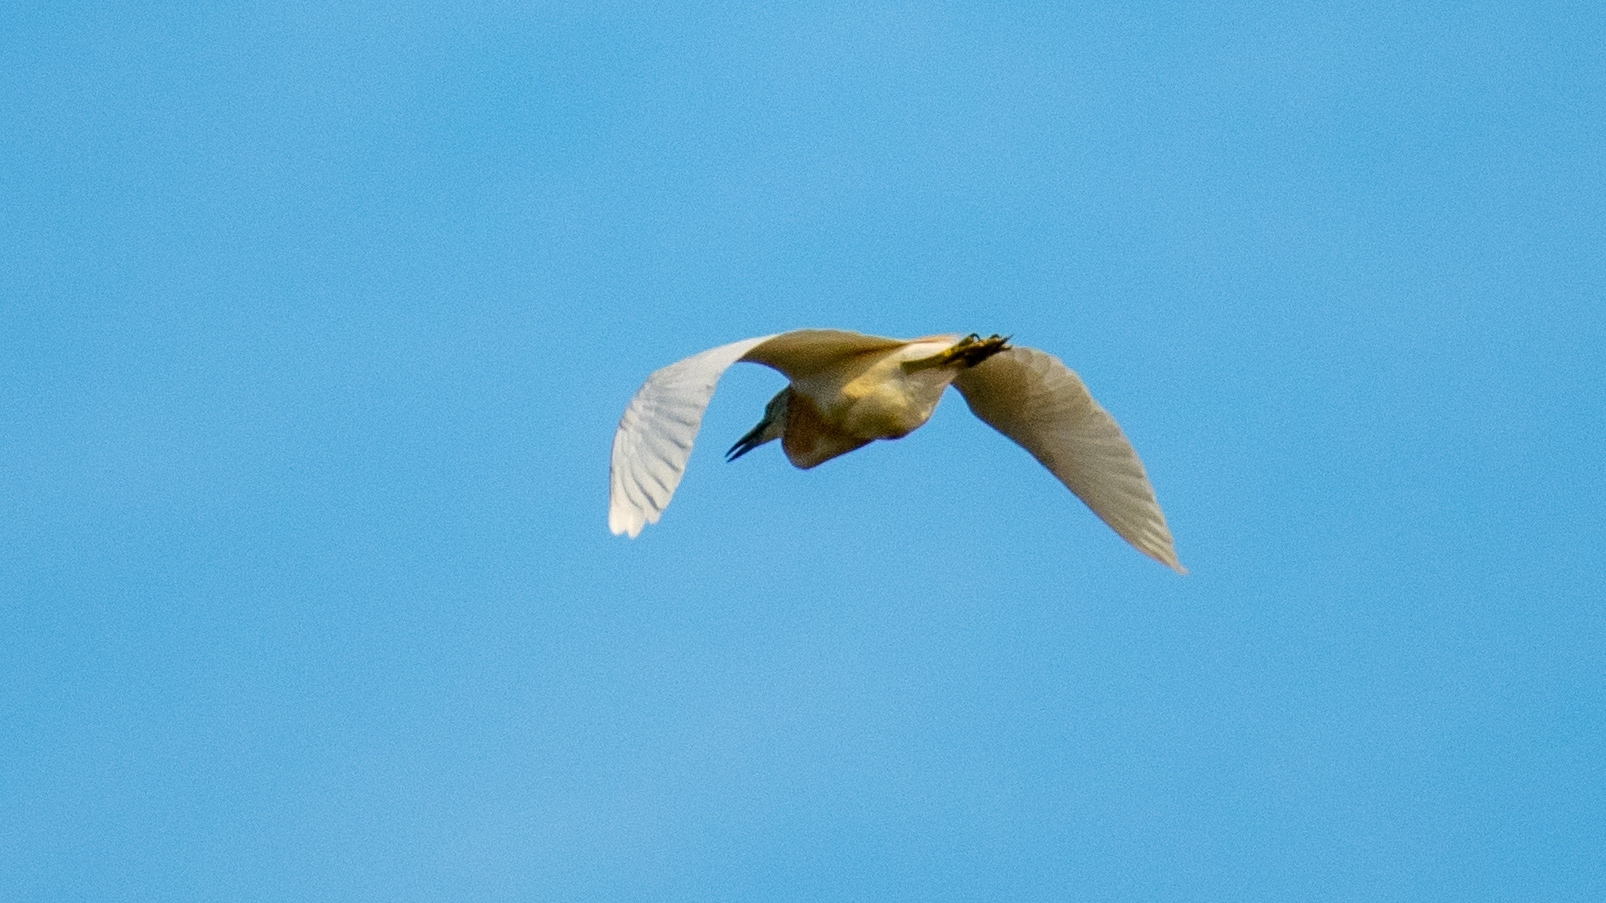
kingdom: Animalia
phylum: Chordata
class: Aves
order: Pelecaniformes
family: Ardeidae
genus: Ardeola
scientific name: Ardeola ralloides
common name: Squacco heron
